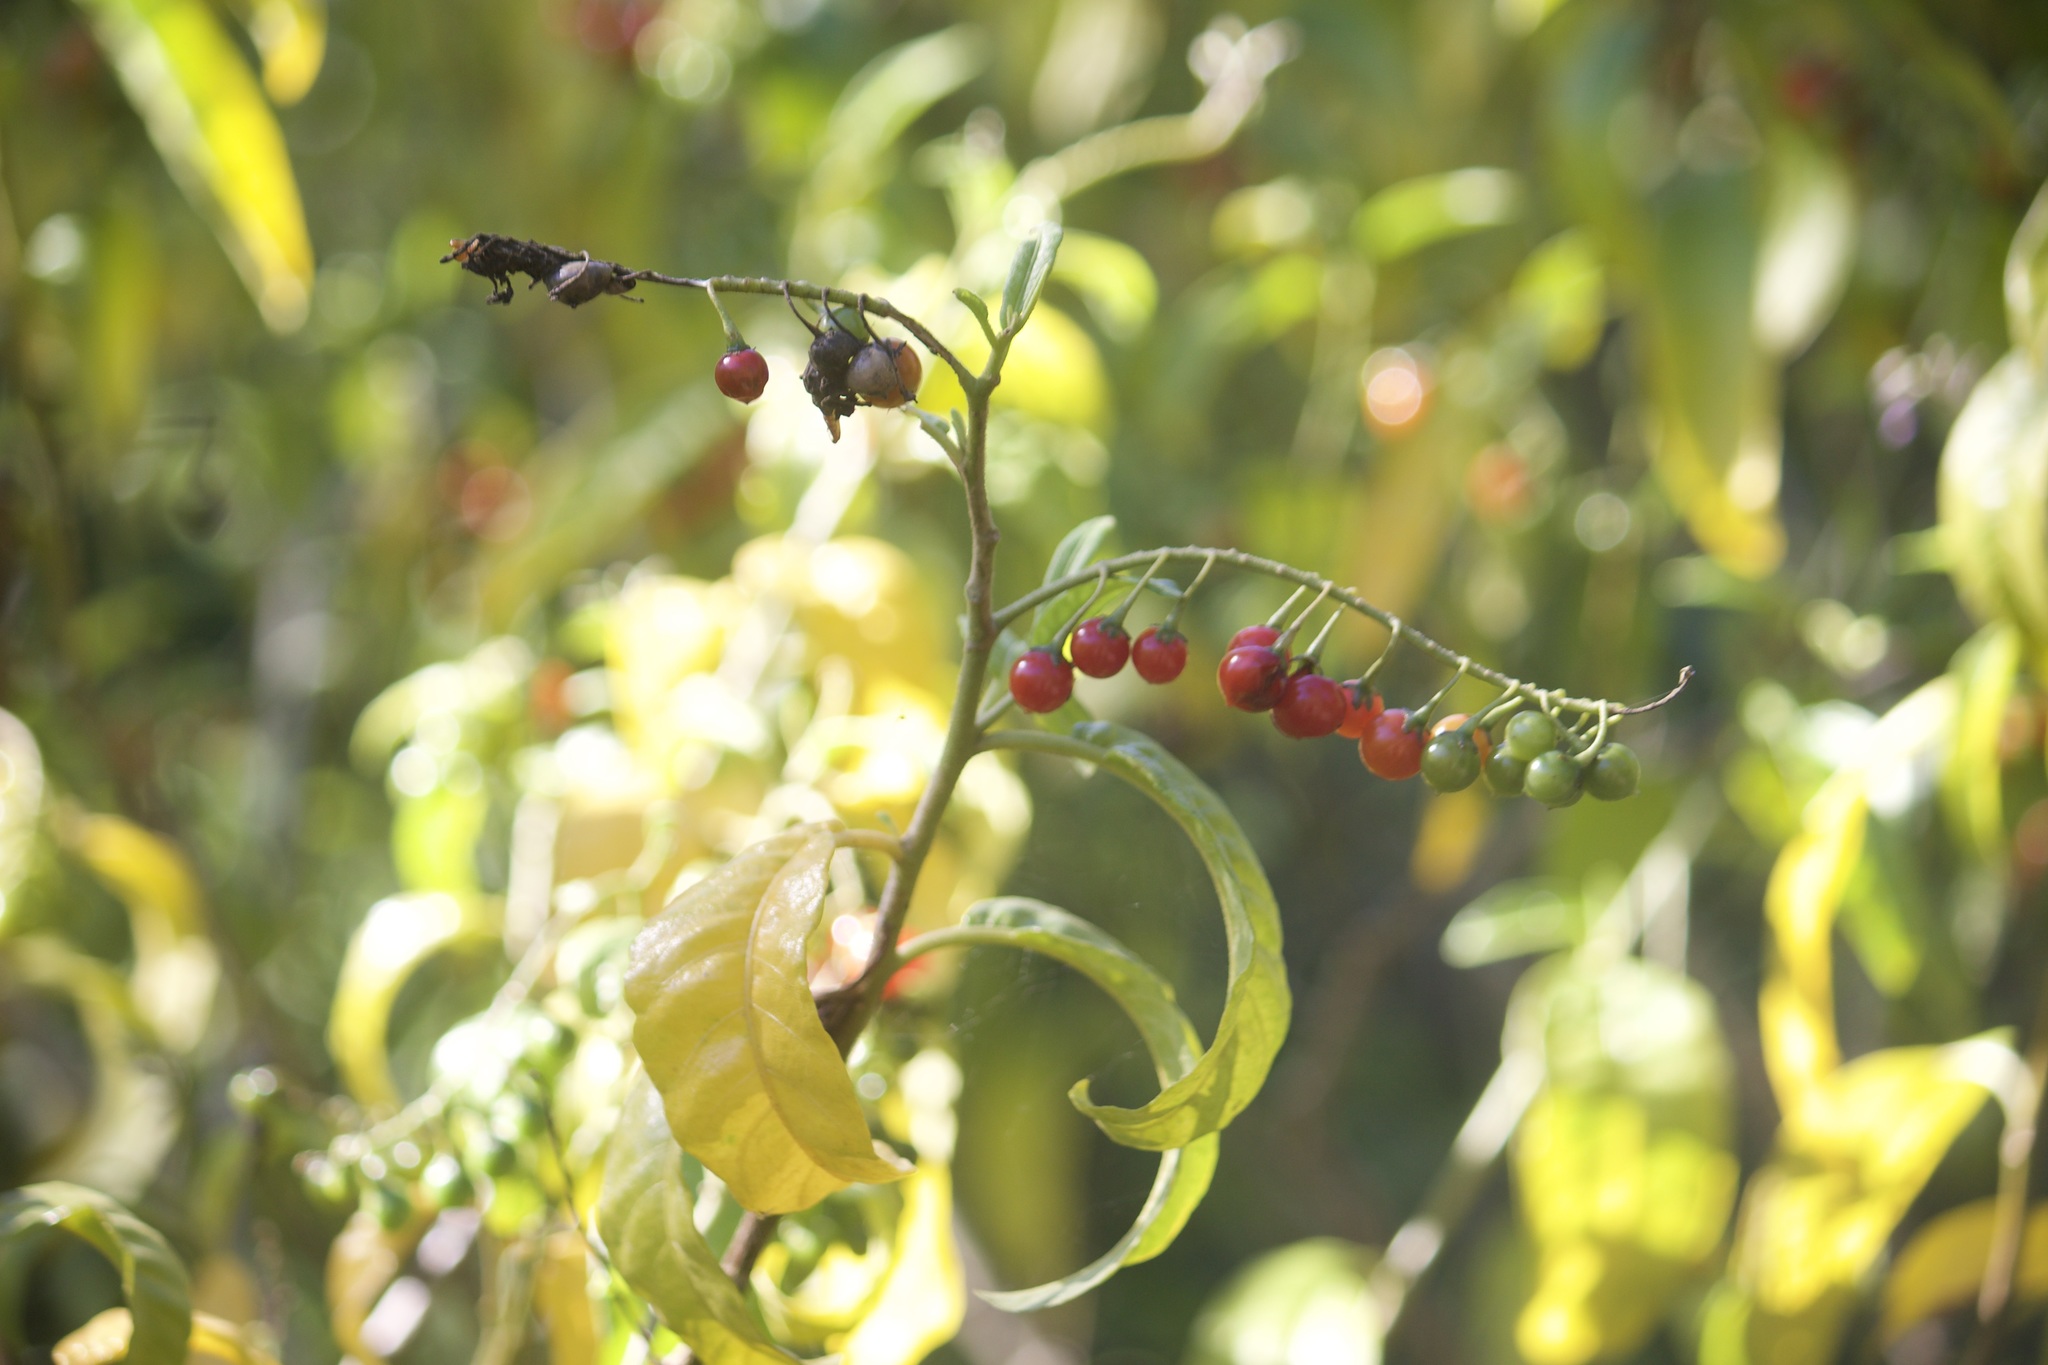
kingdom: Plantae
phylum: Tracheophyta
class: Magnoliopsida
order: Solanales
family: Solanaceae
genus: Solanum
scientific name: Solanum bahamense
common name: Canker-berry
